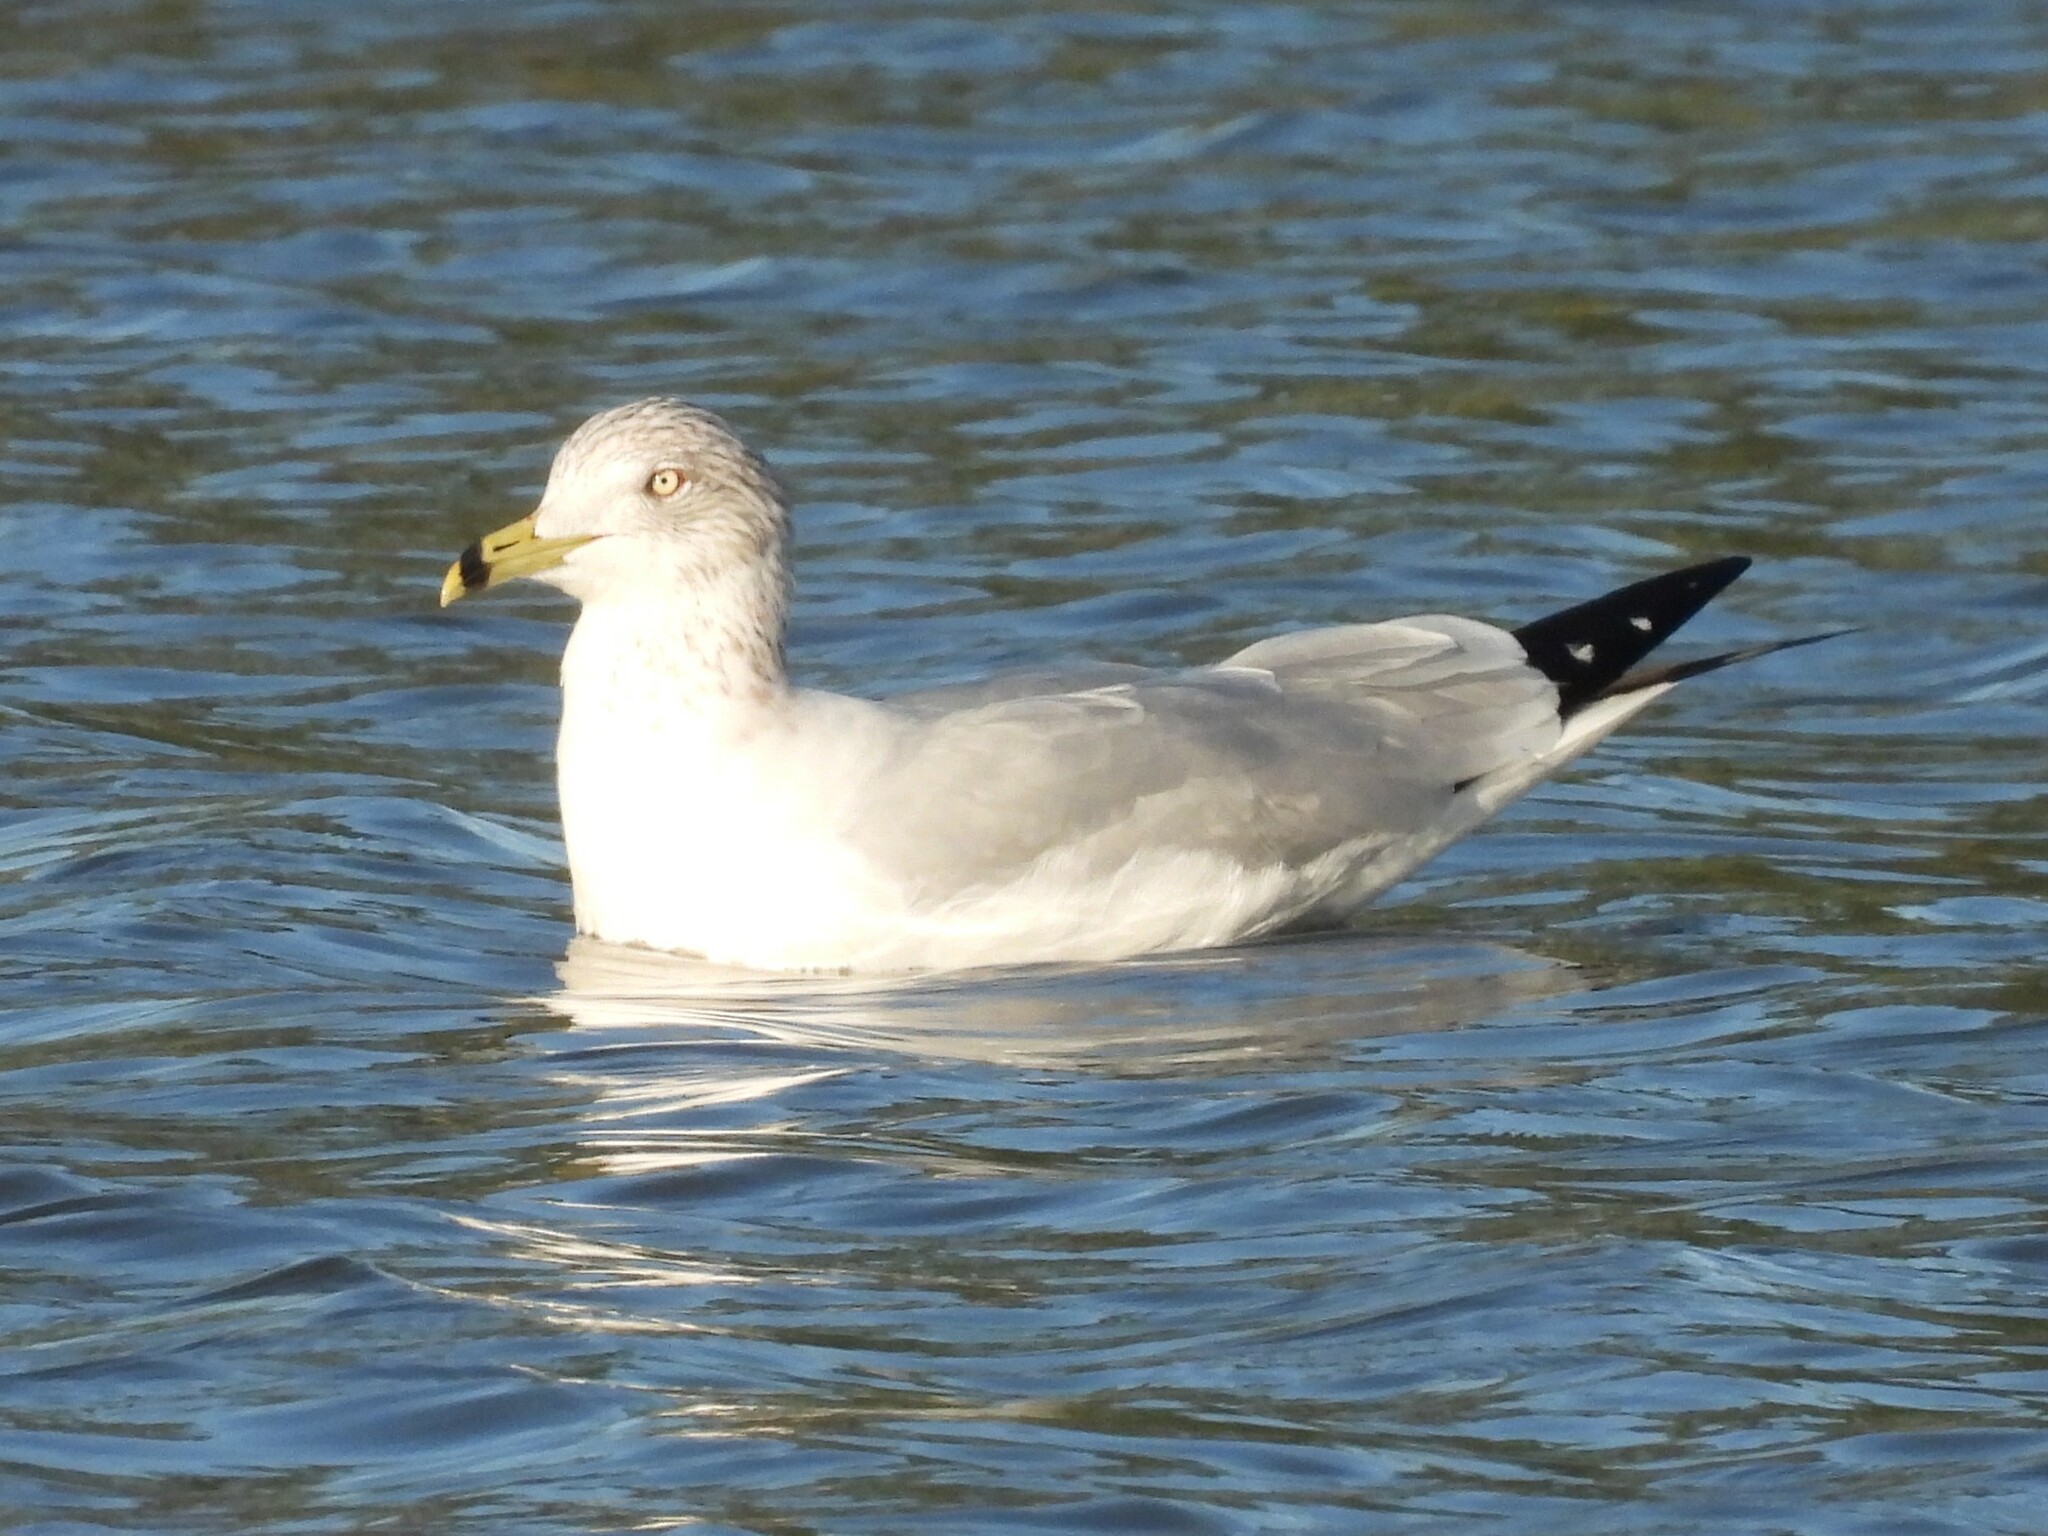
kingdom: Animalia
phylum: Chordata
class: Aves
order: Charadriiformes
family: Laridae
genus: Larus
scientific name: Larus delawarensis
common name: Ring-billed gull
